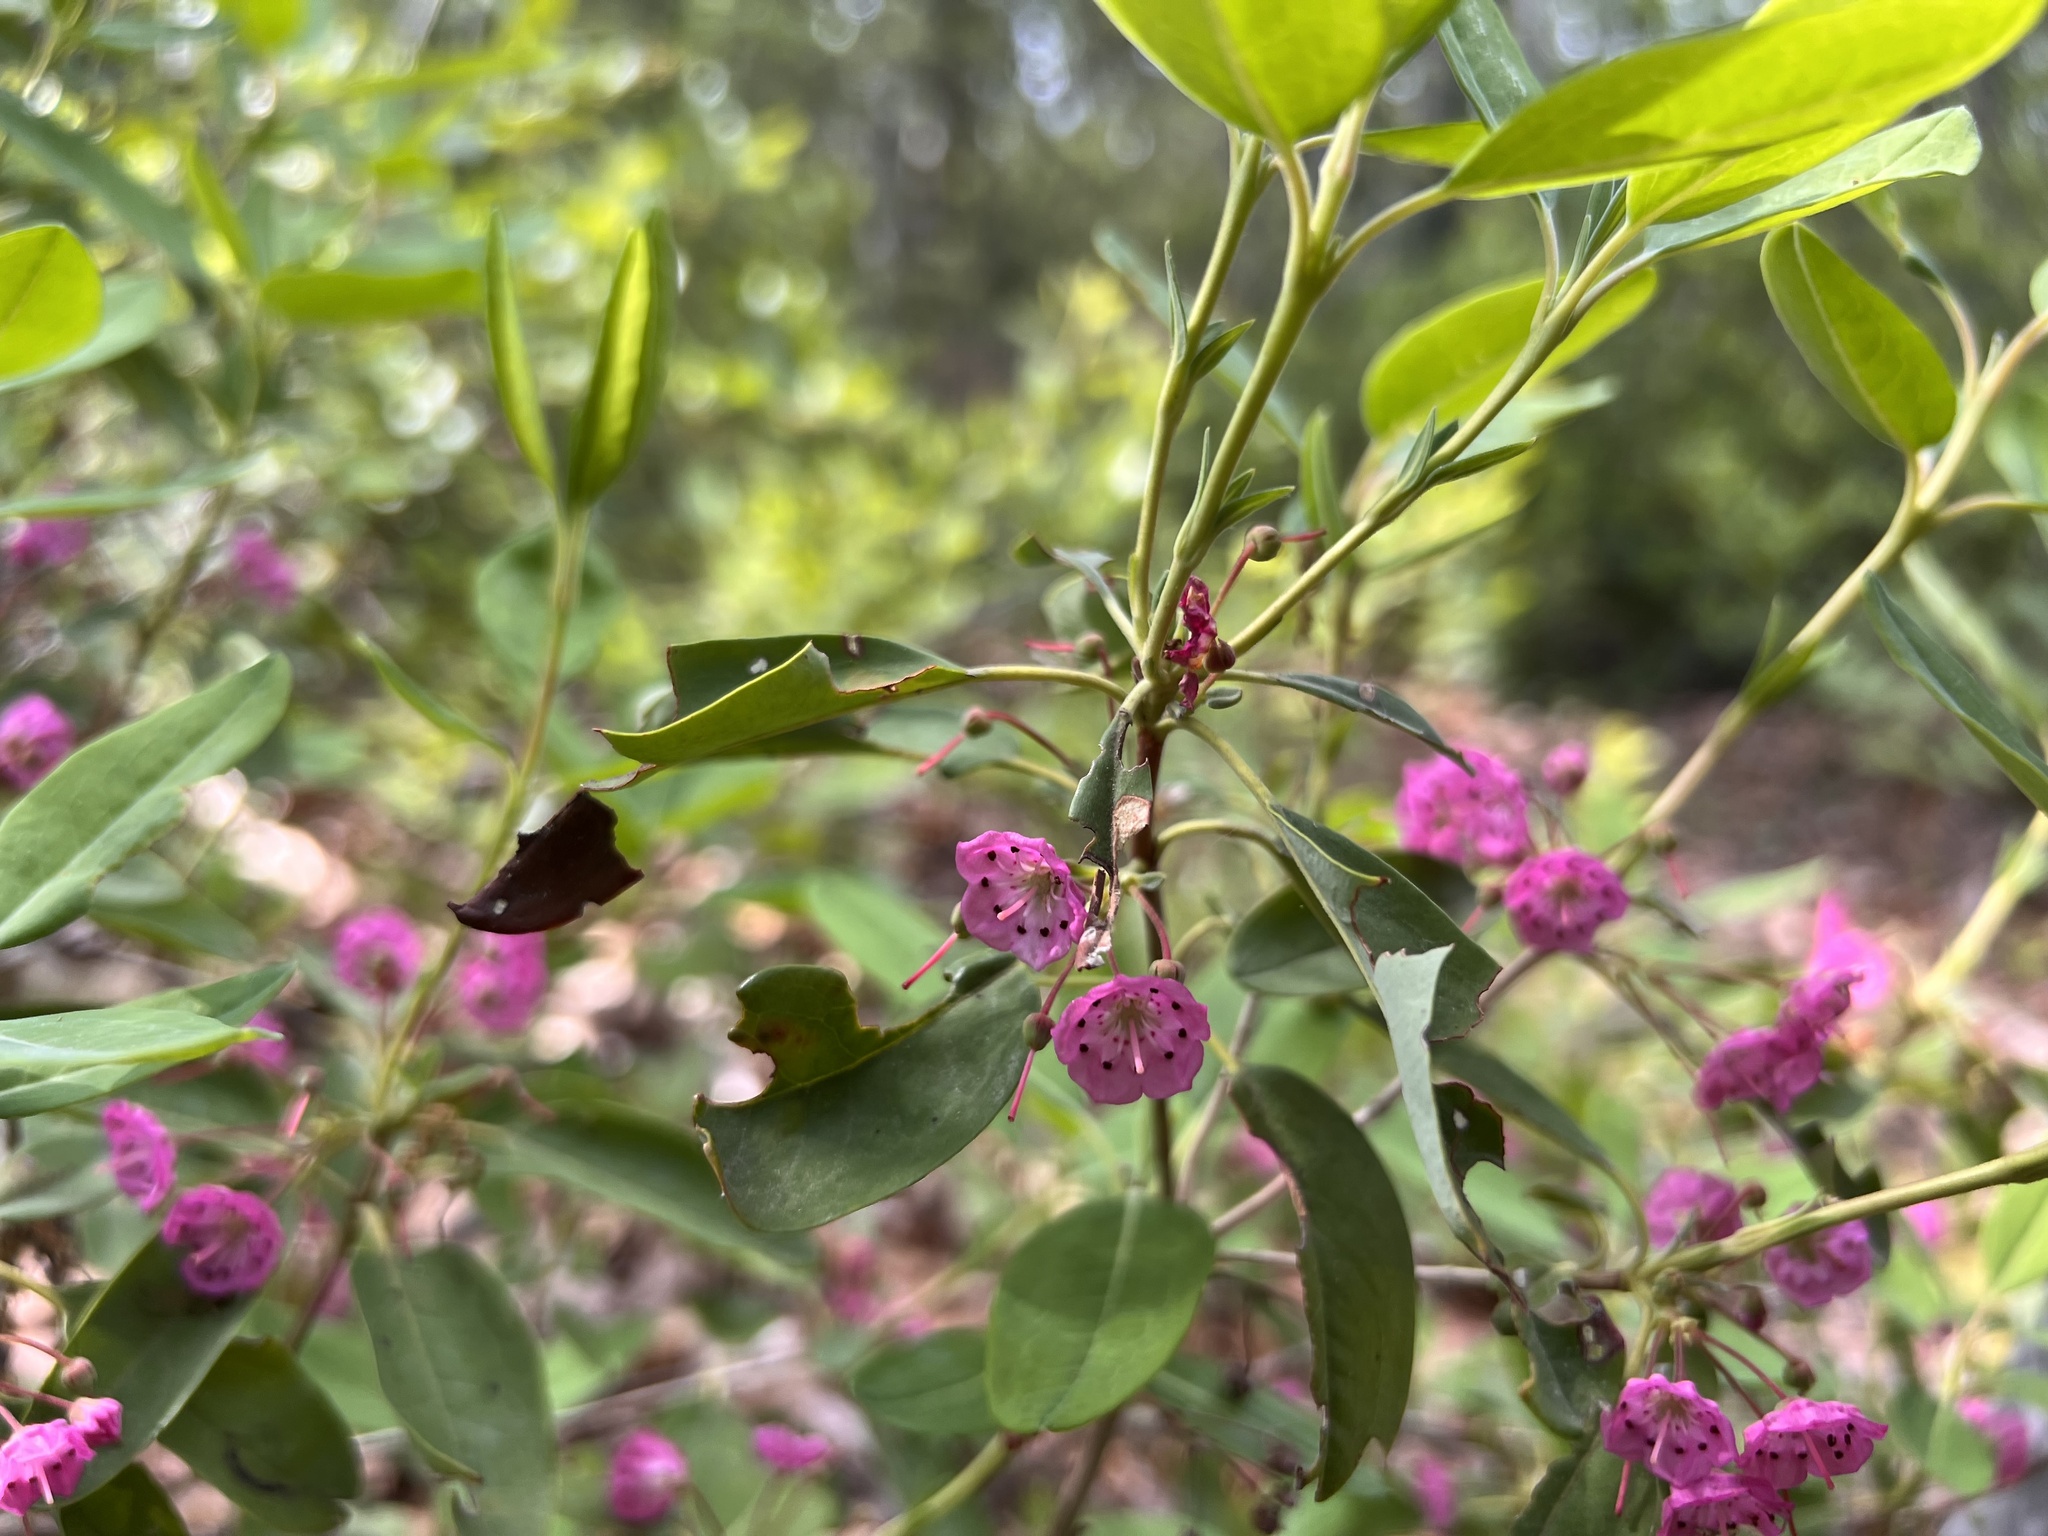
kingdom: Plantae
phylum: Tracheophyta
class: Magnoliopsida
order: Ericales
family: Ericaceae
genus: Kalmia
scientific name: Kalmia angustifolia
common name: Sheep-laurel
